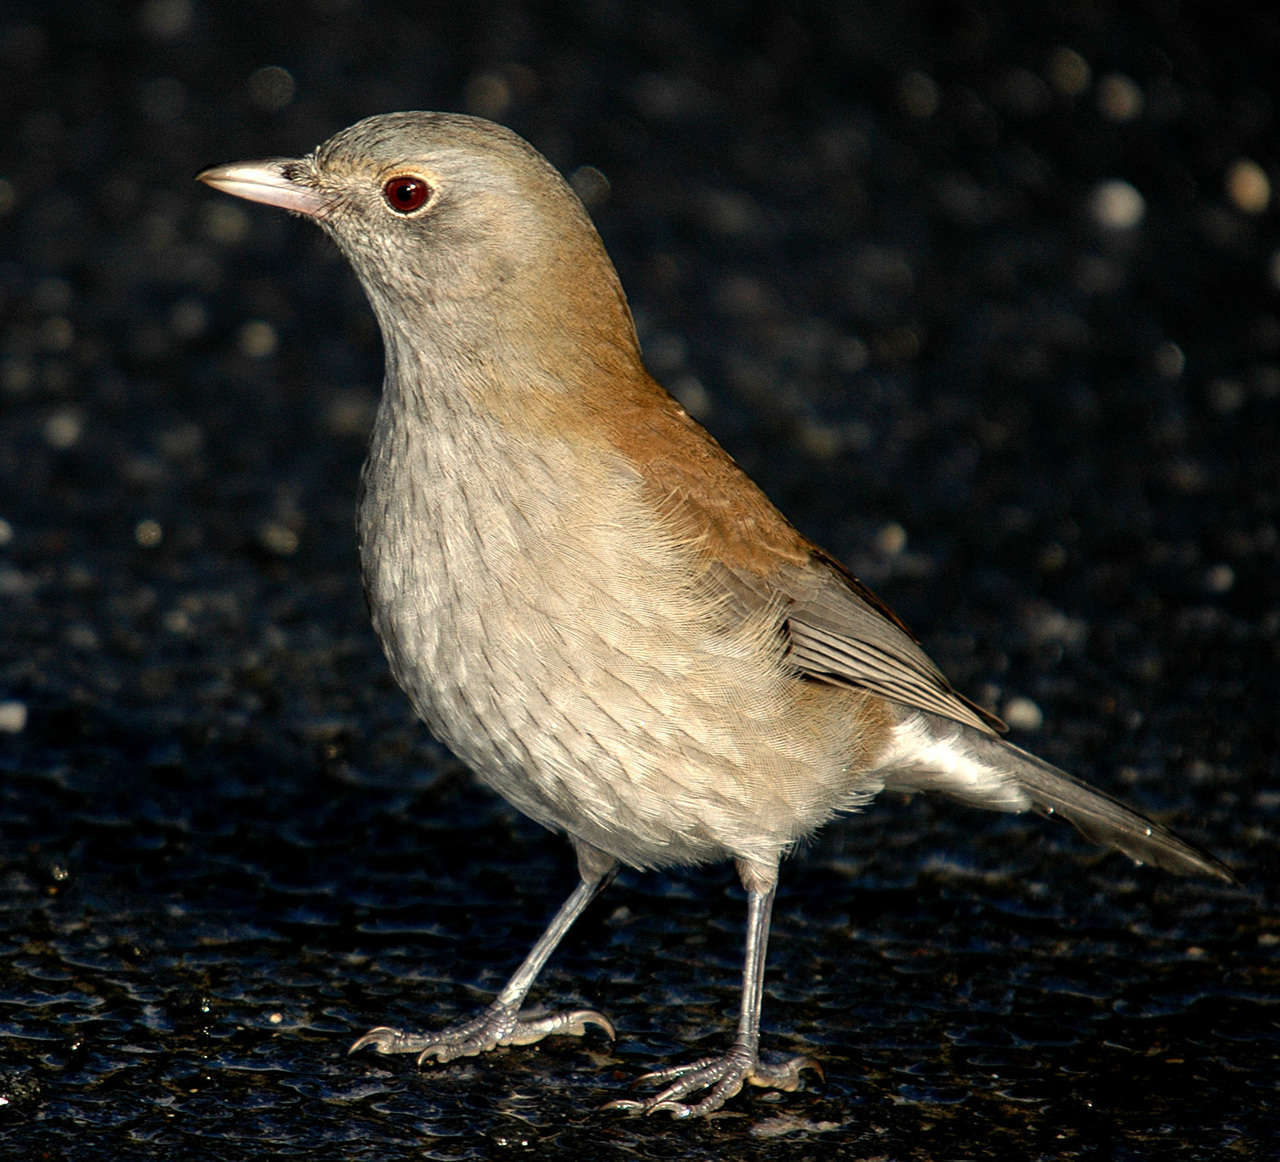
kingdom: Animalia
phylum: Chordata
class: Aves
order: Passeriformes
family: Pachycephalidae
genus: Colluricincla
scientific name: Colluricincla harmonica
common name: Grey shrikethrush
